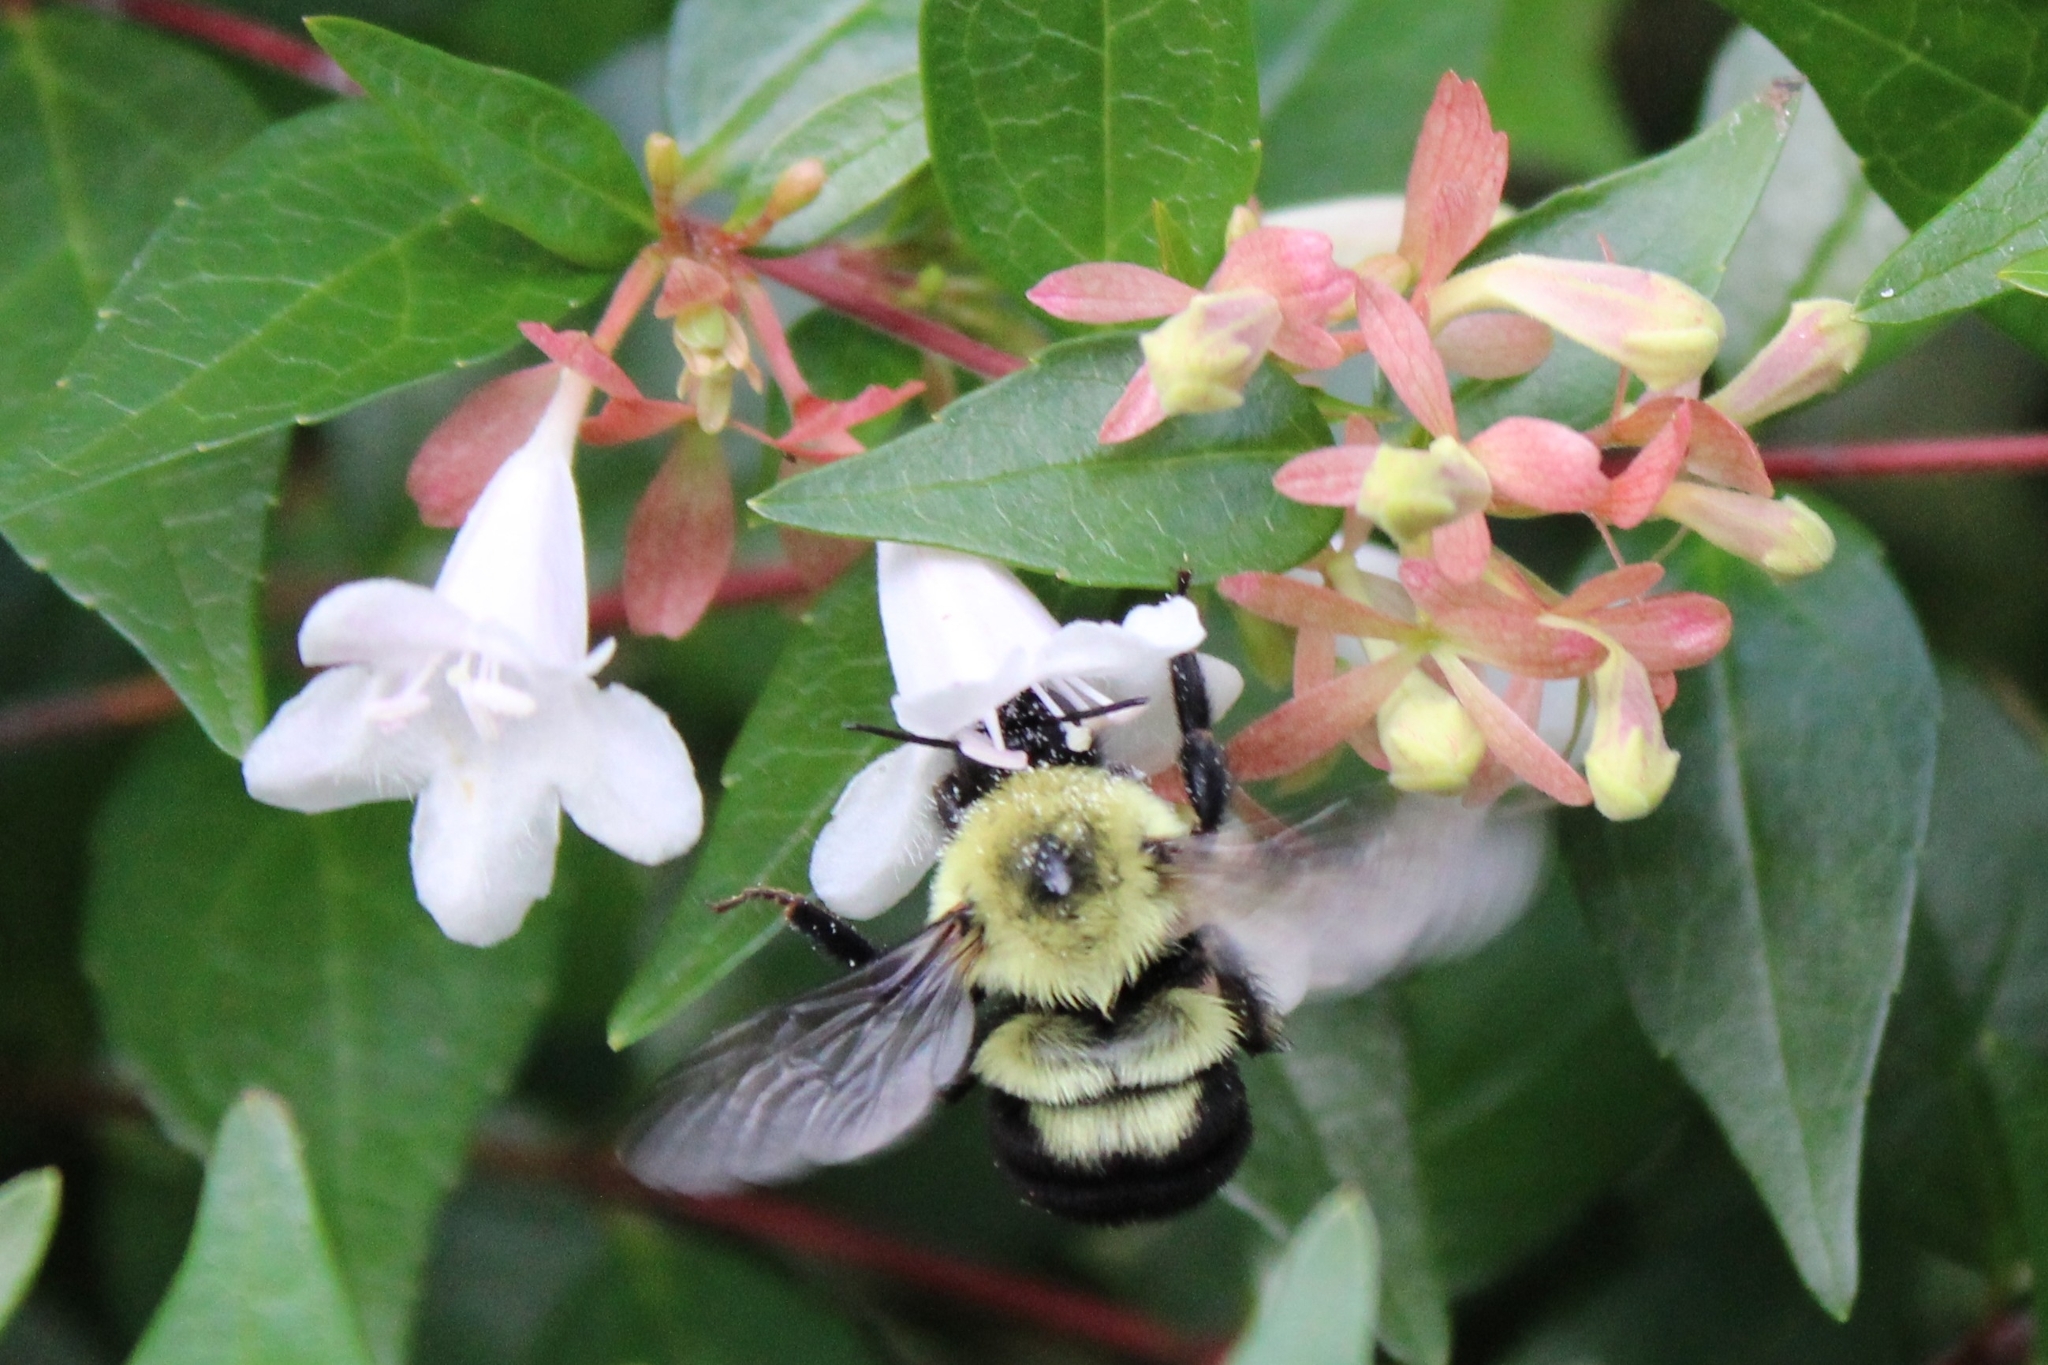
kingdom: Animalia
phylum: Arthropoda
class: Insecta
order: Hymenoptera
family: Apidae
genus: Bombus
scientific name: Bombus bimaculatus
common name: Two-spotted bumble bee
